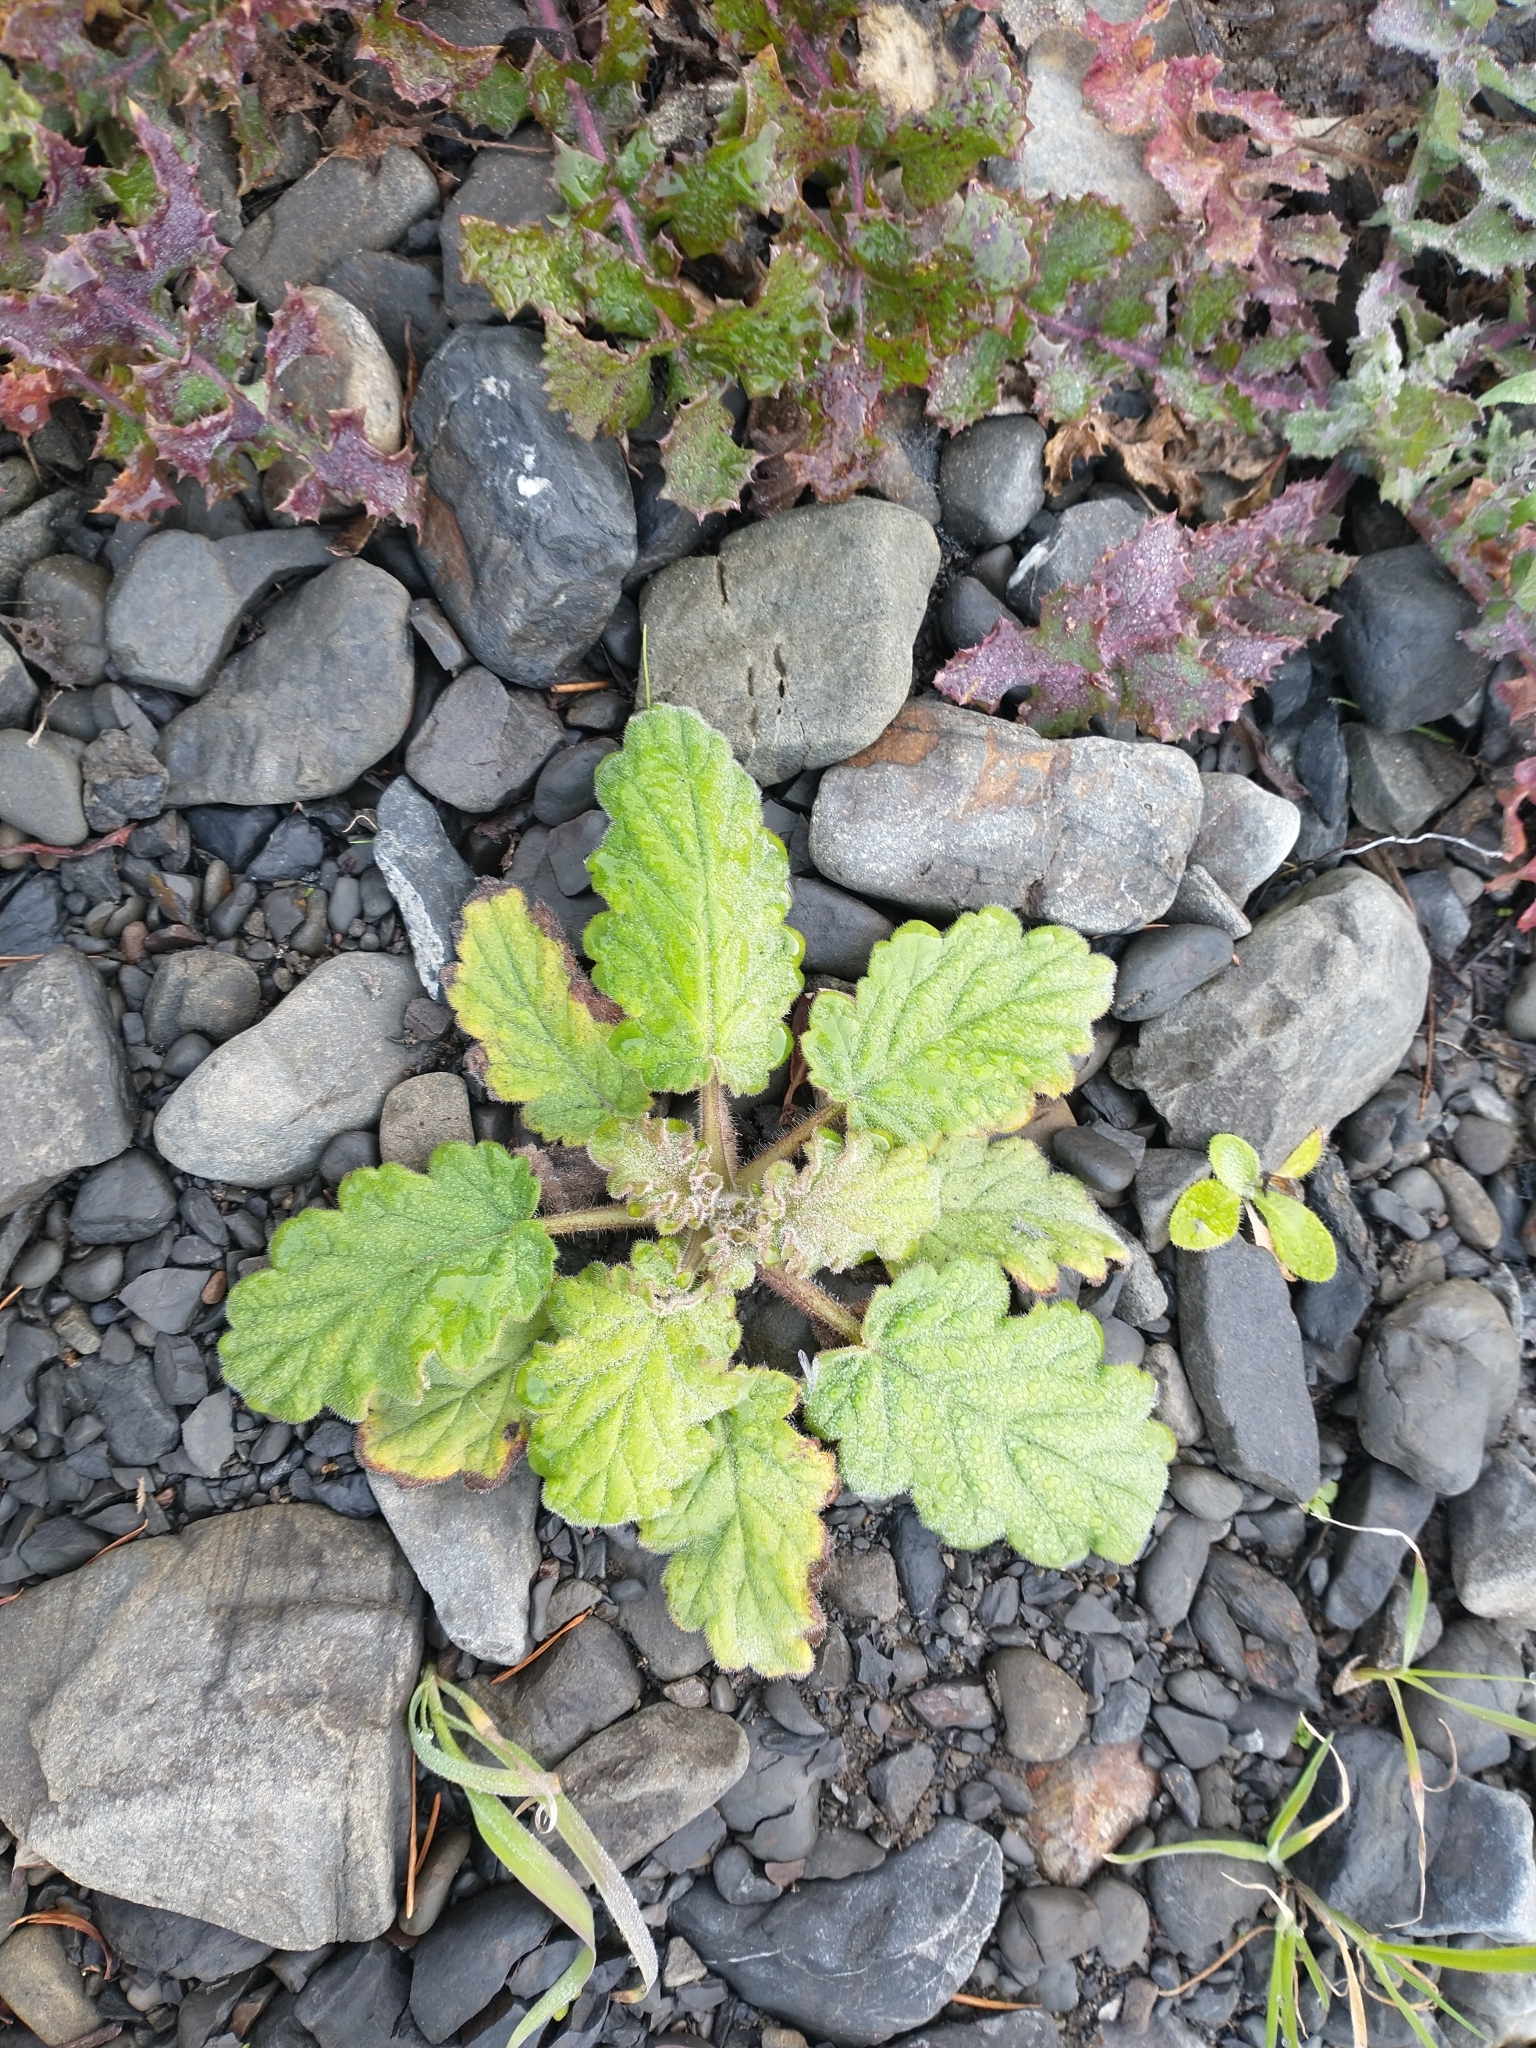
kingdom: Plantae
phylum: Tracheophyta
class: Magnoliopsida
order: Boraginales
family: Hydrophyllaceae
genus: Phacelia
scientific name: Phacelia bolanderi
